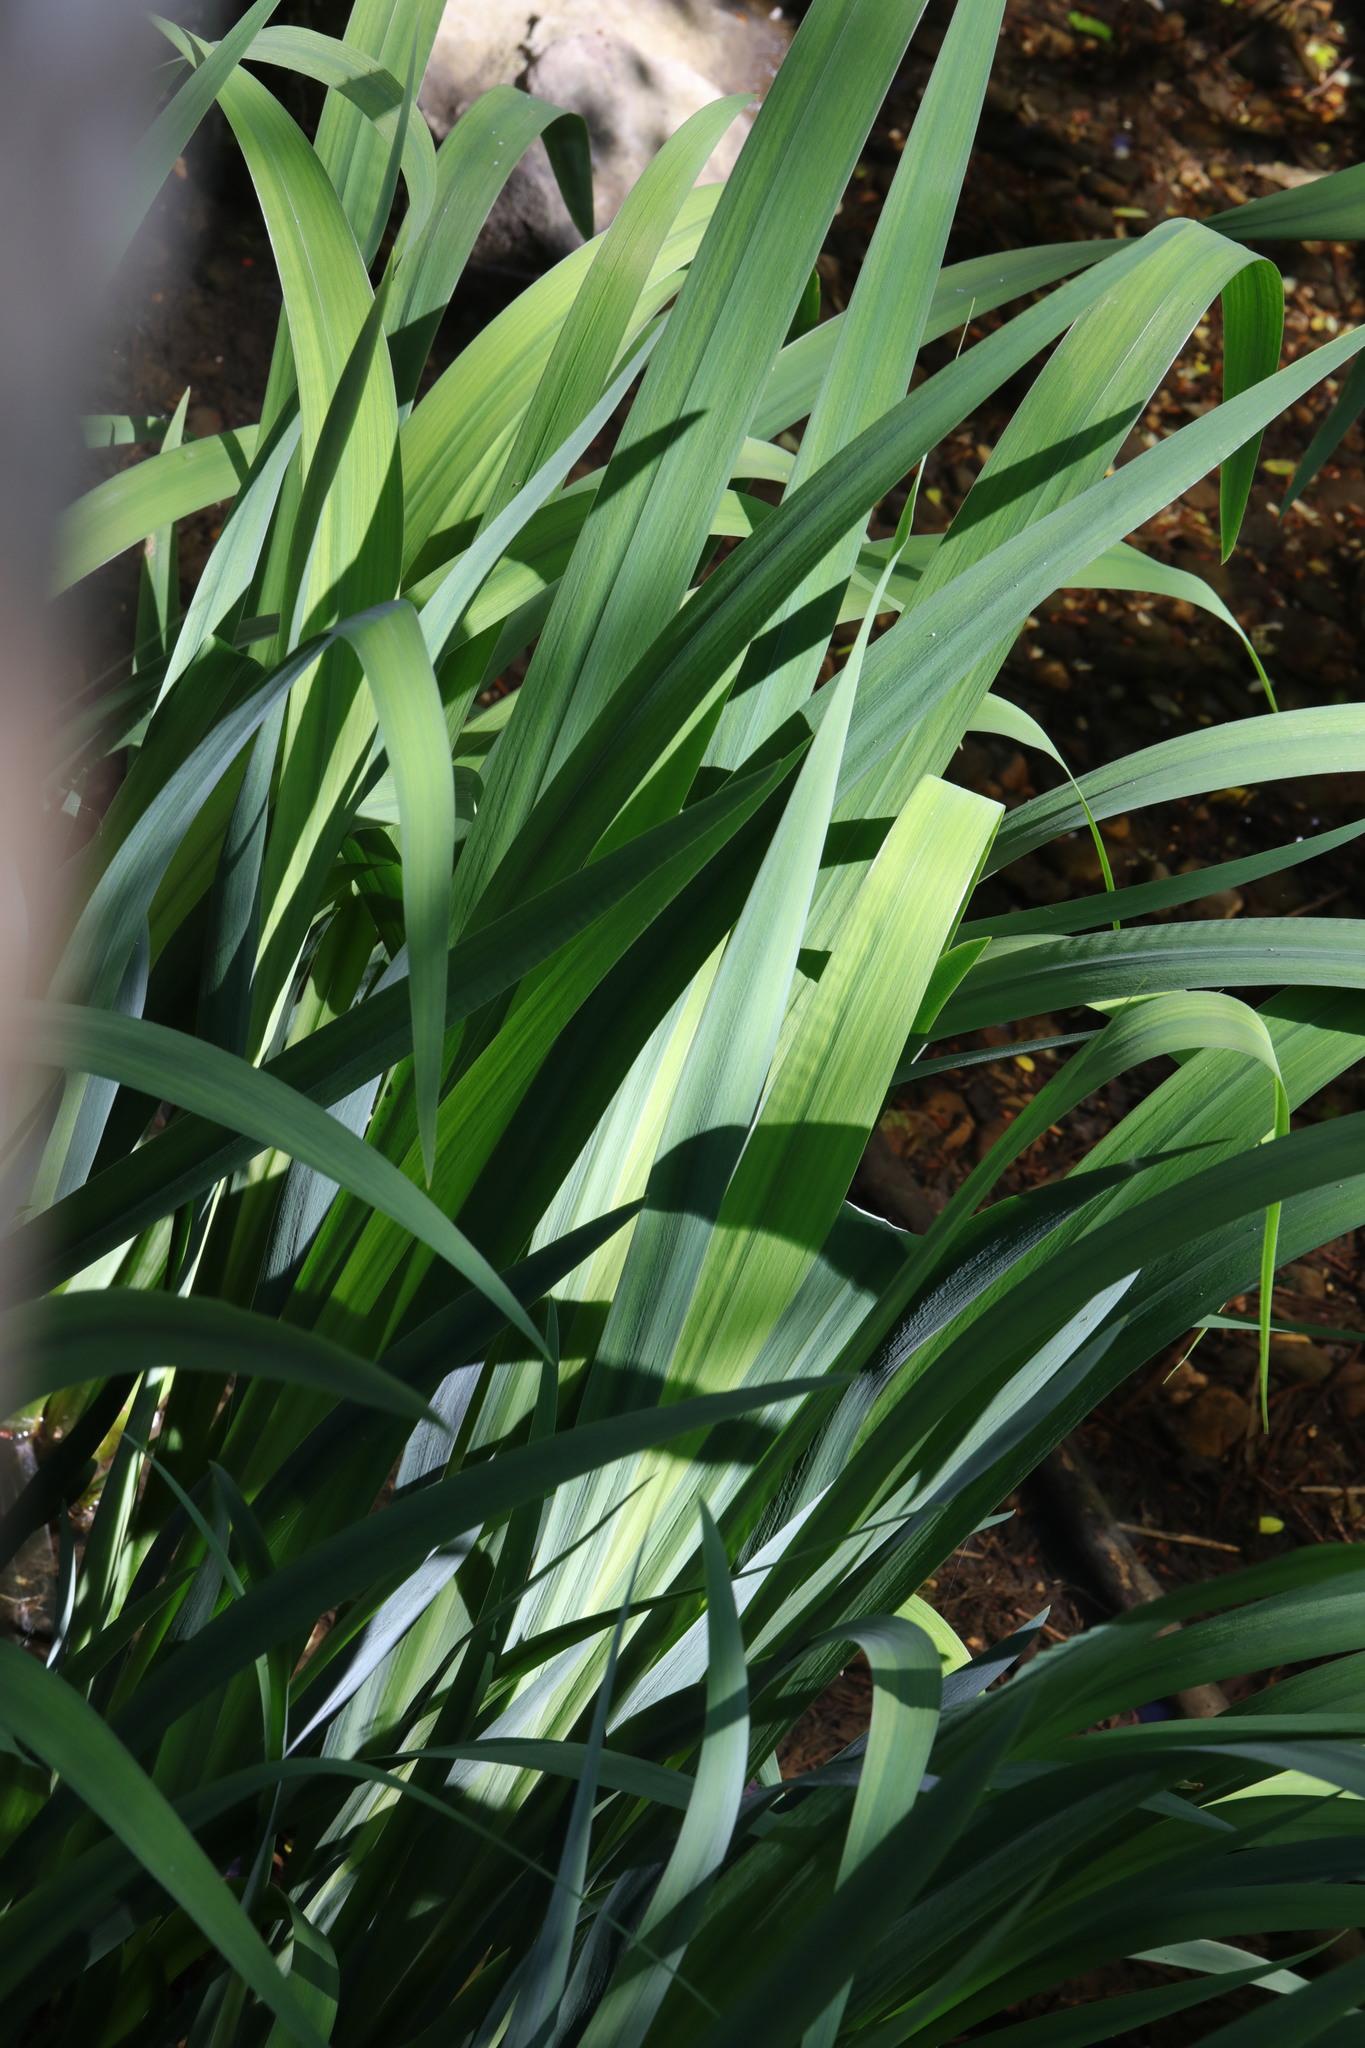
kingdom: Plantae
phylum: Tracheophyta
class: Liliopsida
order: Asparagales
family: Iridaceae
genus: Iris
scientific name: Iris pseudacorus
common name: Yellow flag
